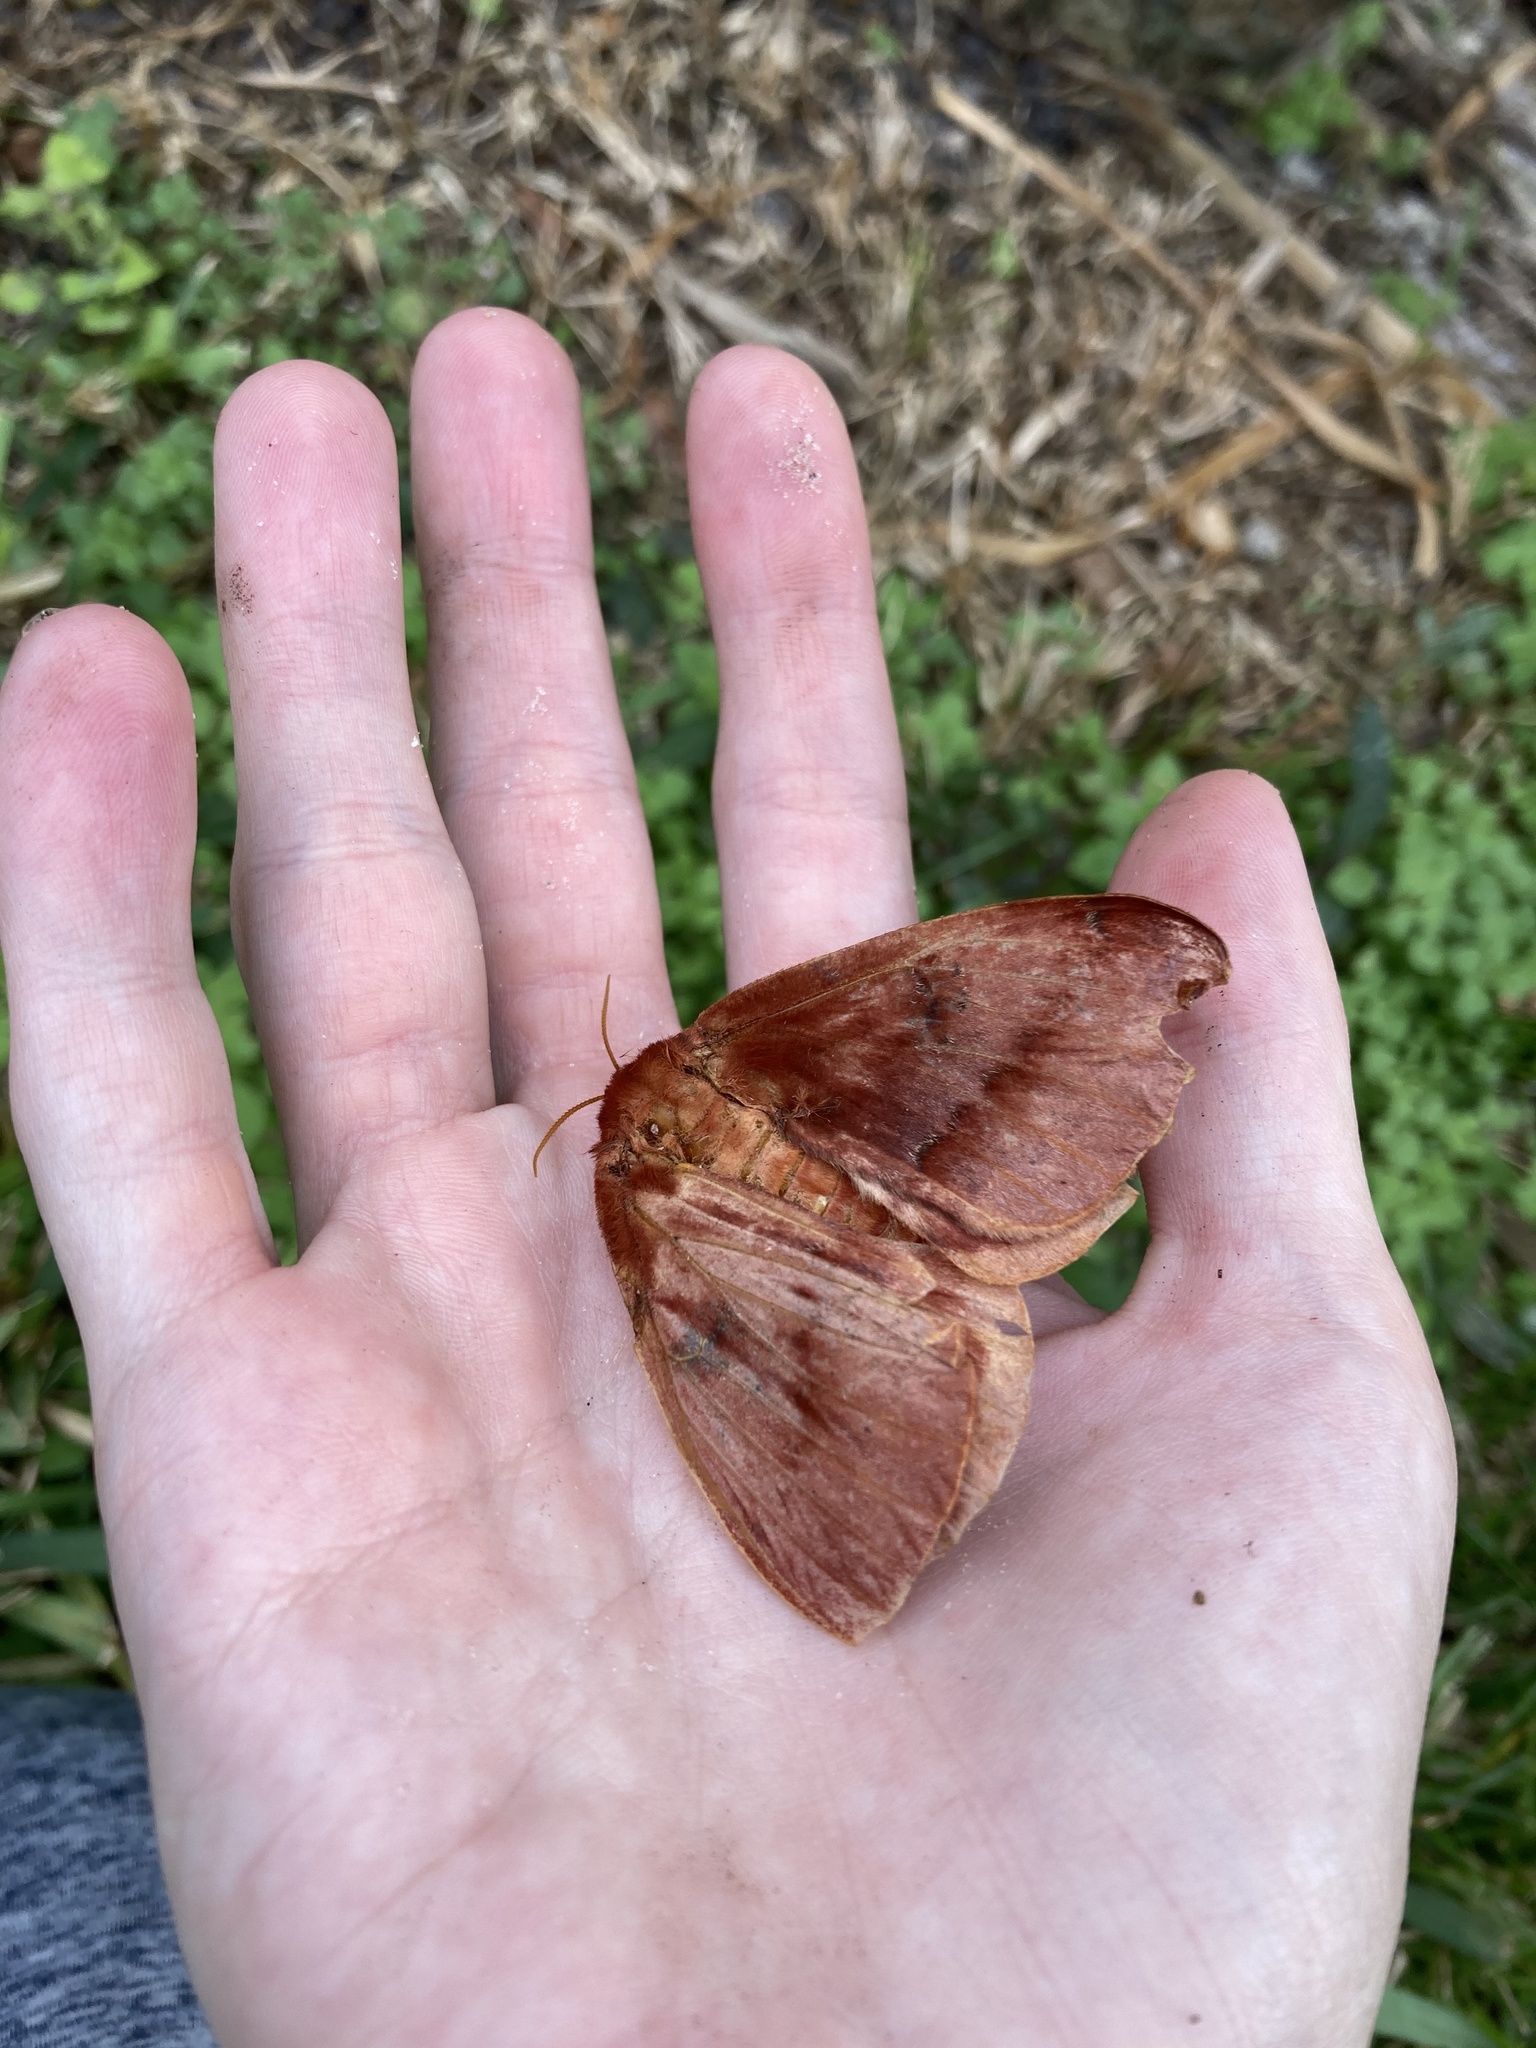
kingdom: Animalia
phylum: Arthropoda
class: Insecta
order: Lepidoptera
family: Saturniidae
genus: Automeris
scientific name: Automeris io
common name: Io moth
